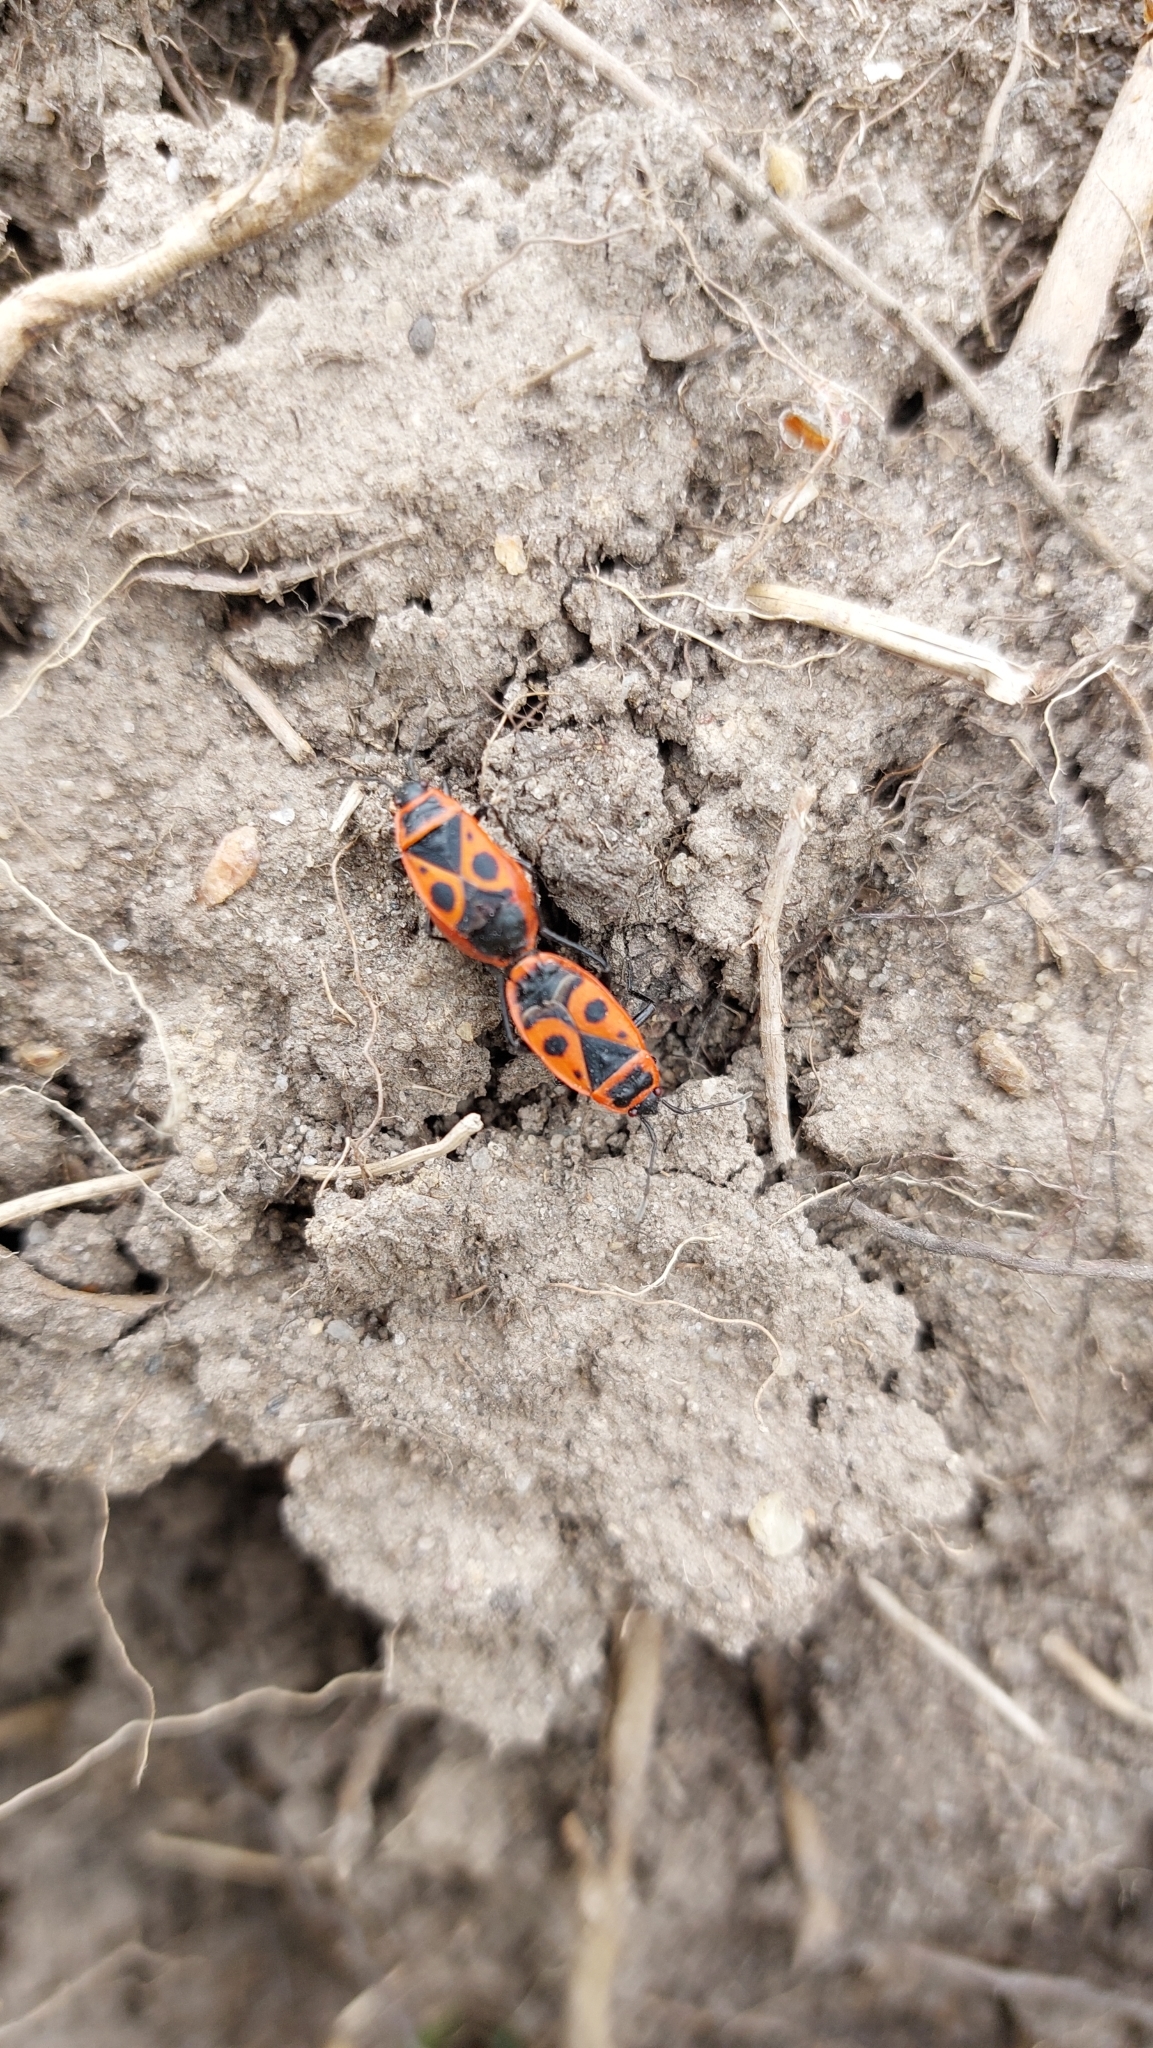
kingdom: Animalia
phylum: Arthropoda
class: Insecta
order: Hemiptera
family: Pyrrhocoridae
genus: Pyrrhocoris
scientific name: Pyrrhocoris apterus
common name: Firebug
